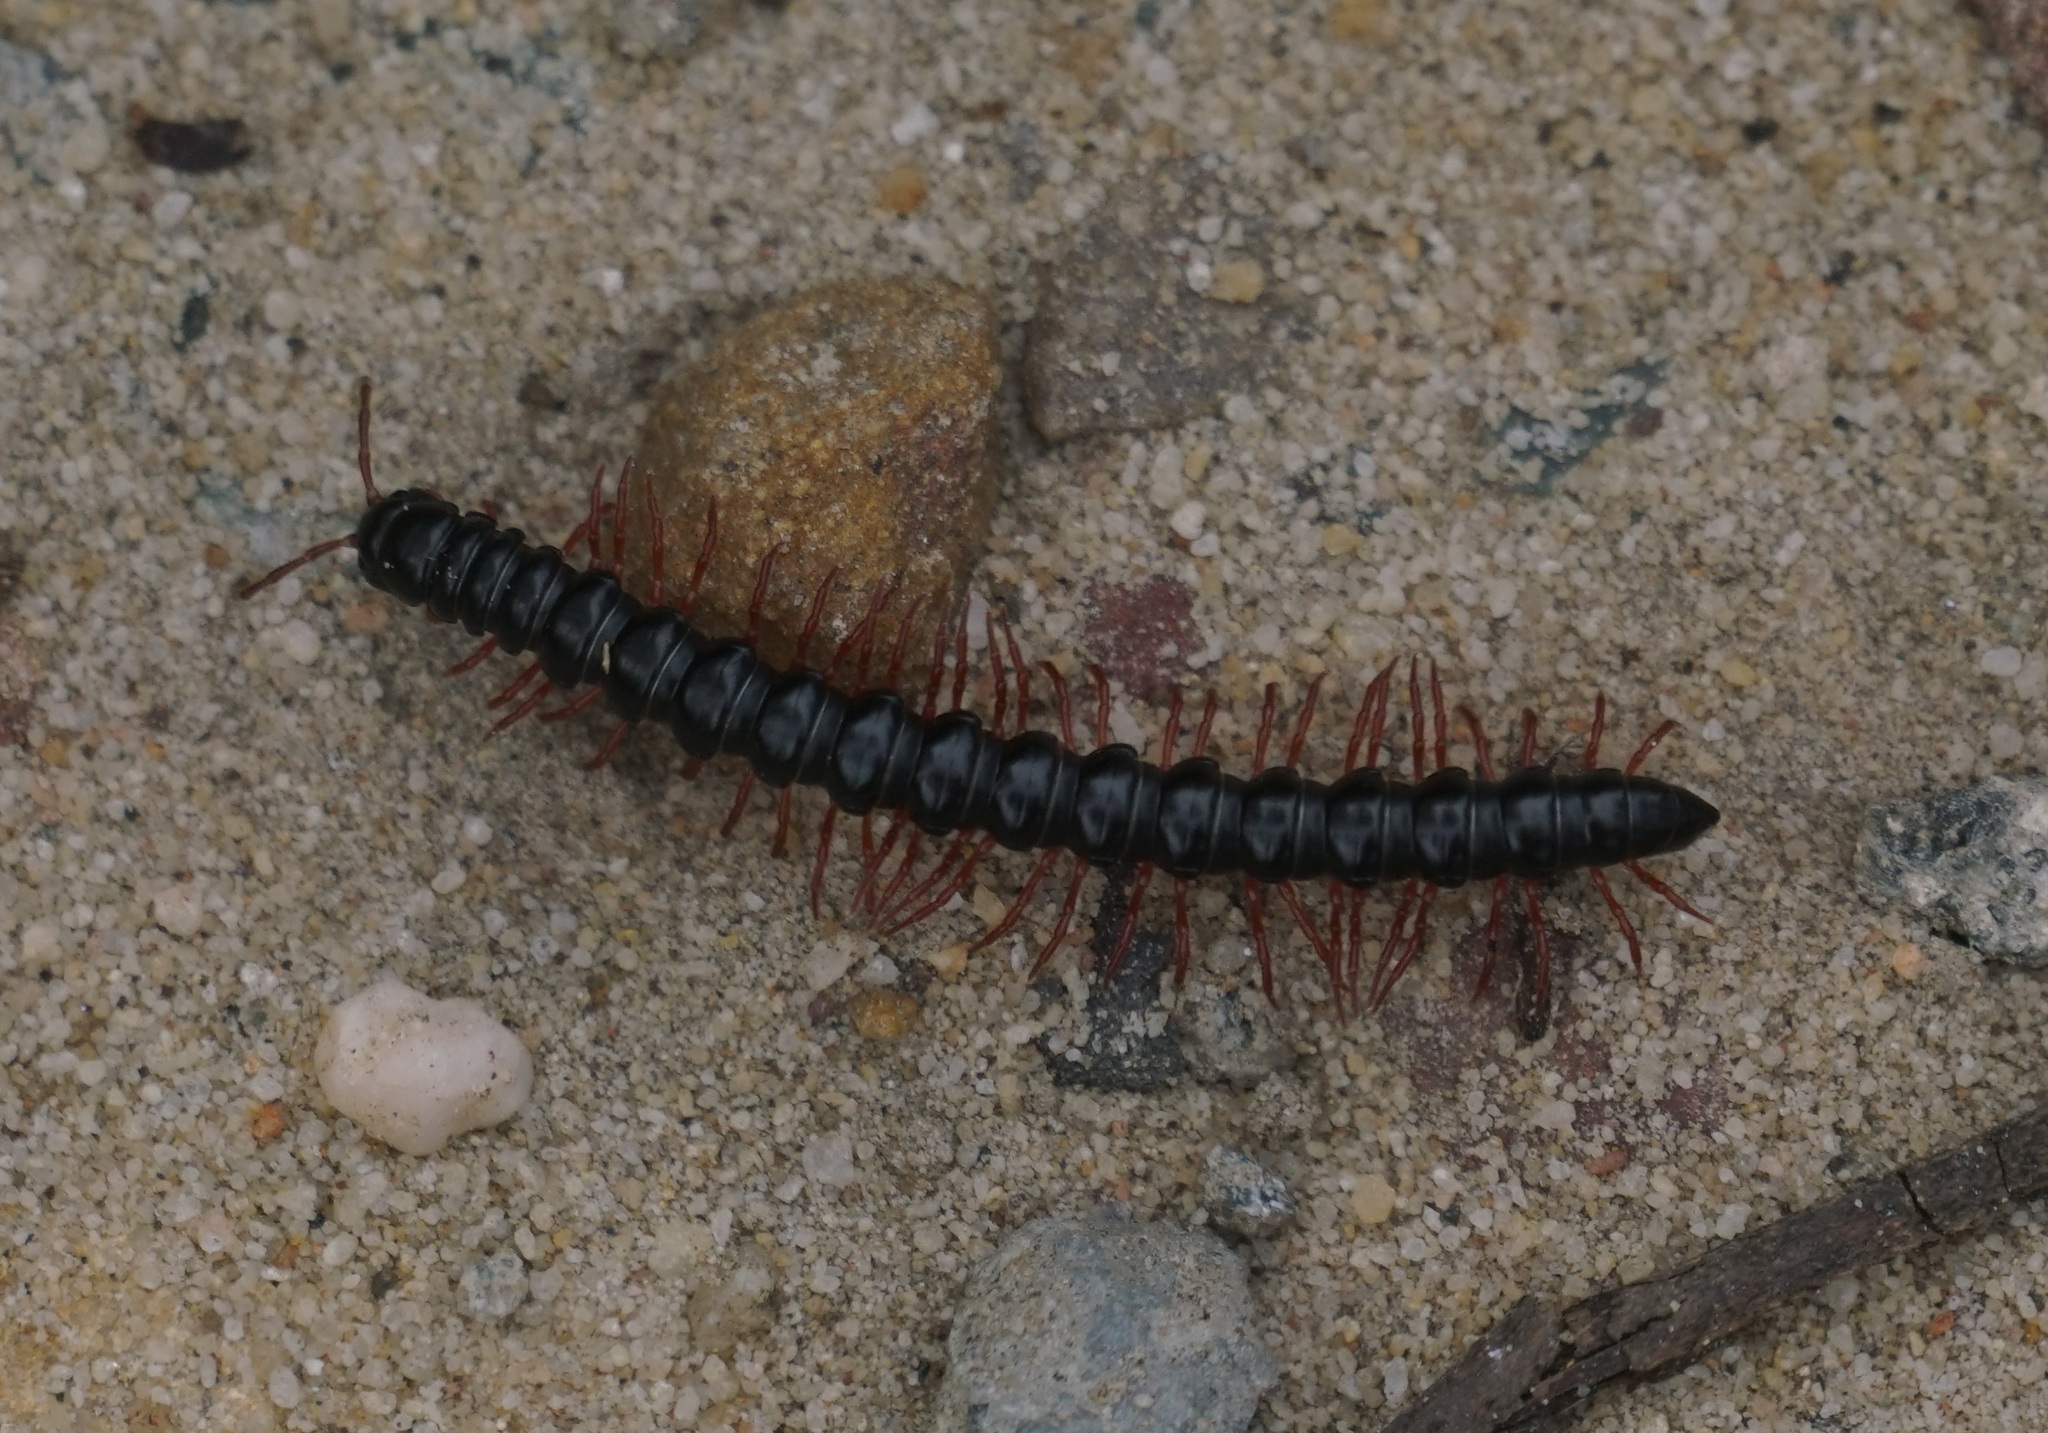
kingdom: Animalia
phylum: Arthropoda
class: Diplopoda
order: Polydesmida
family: Paradoxosomatidae
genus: Heterocladosoma
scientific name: Heterocladosoma
